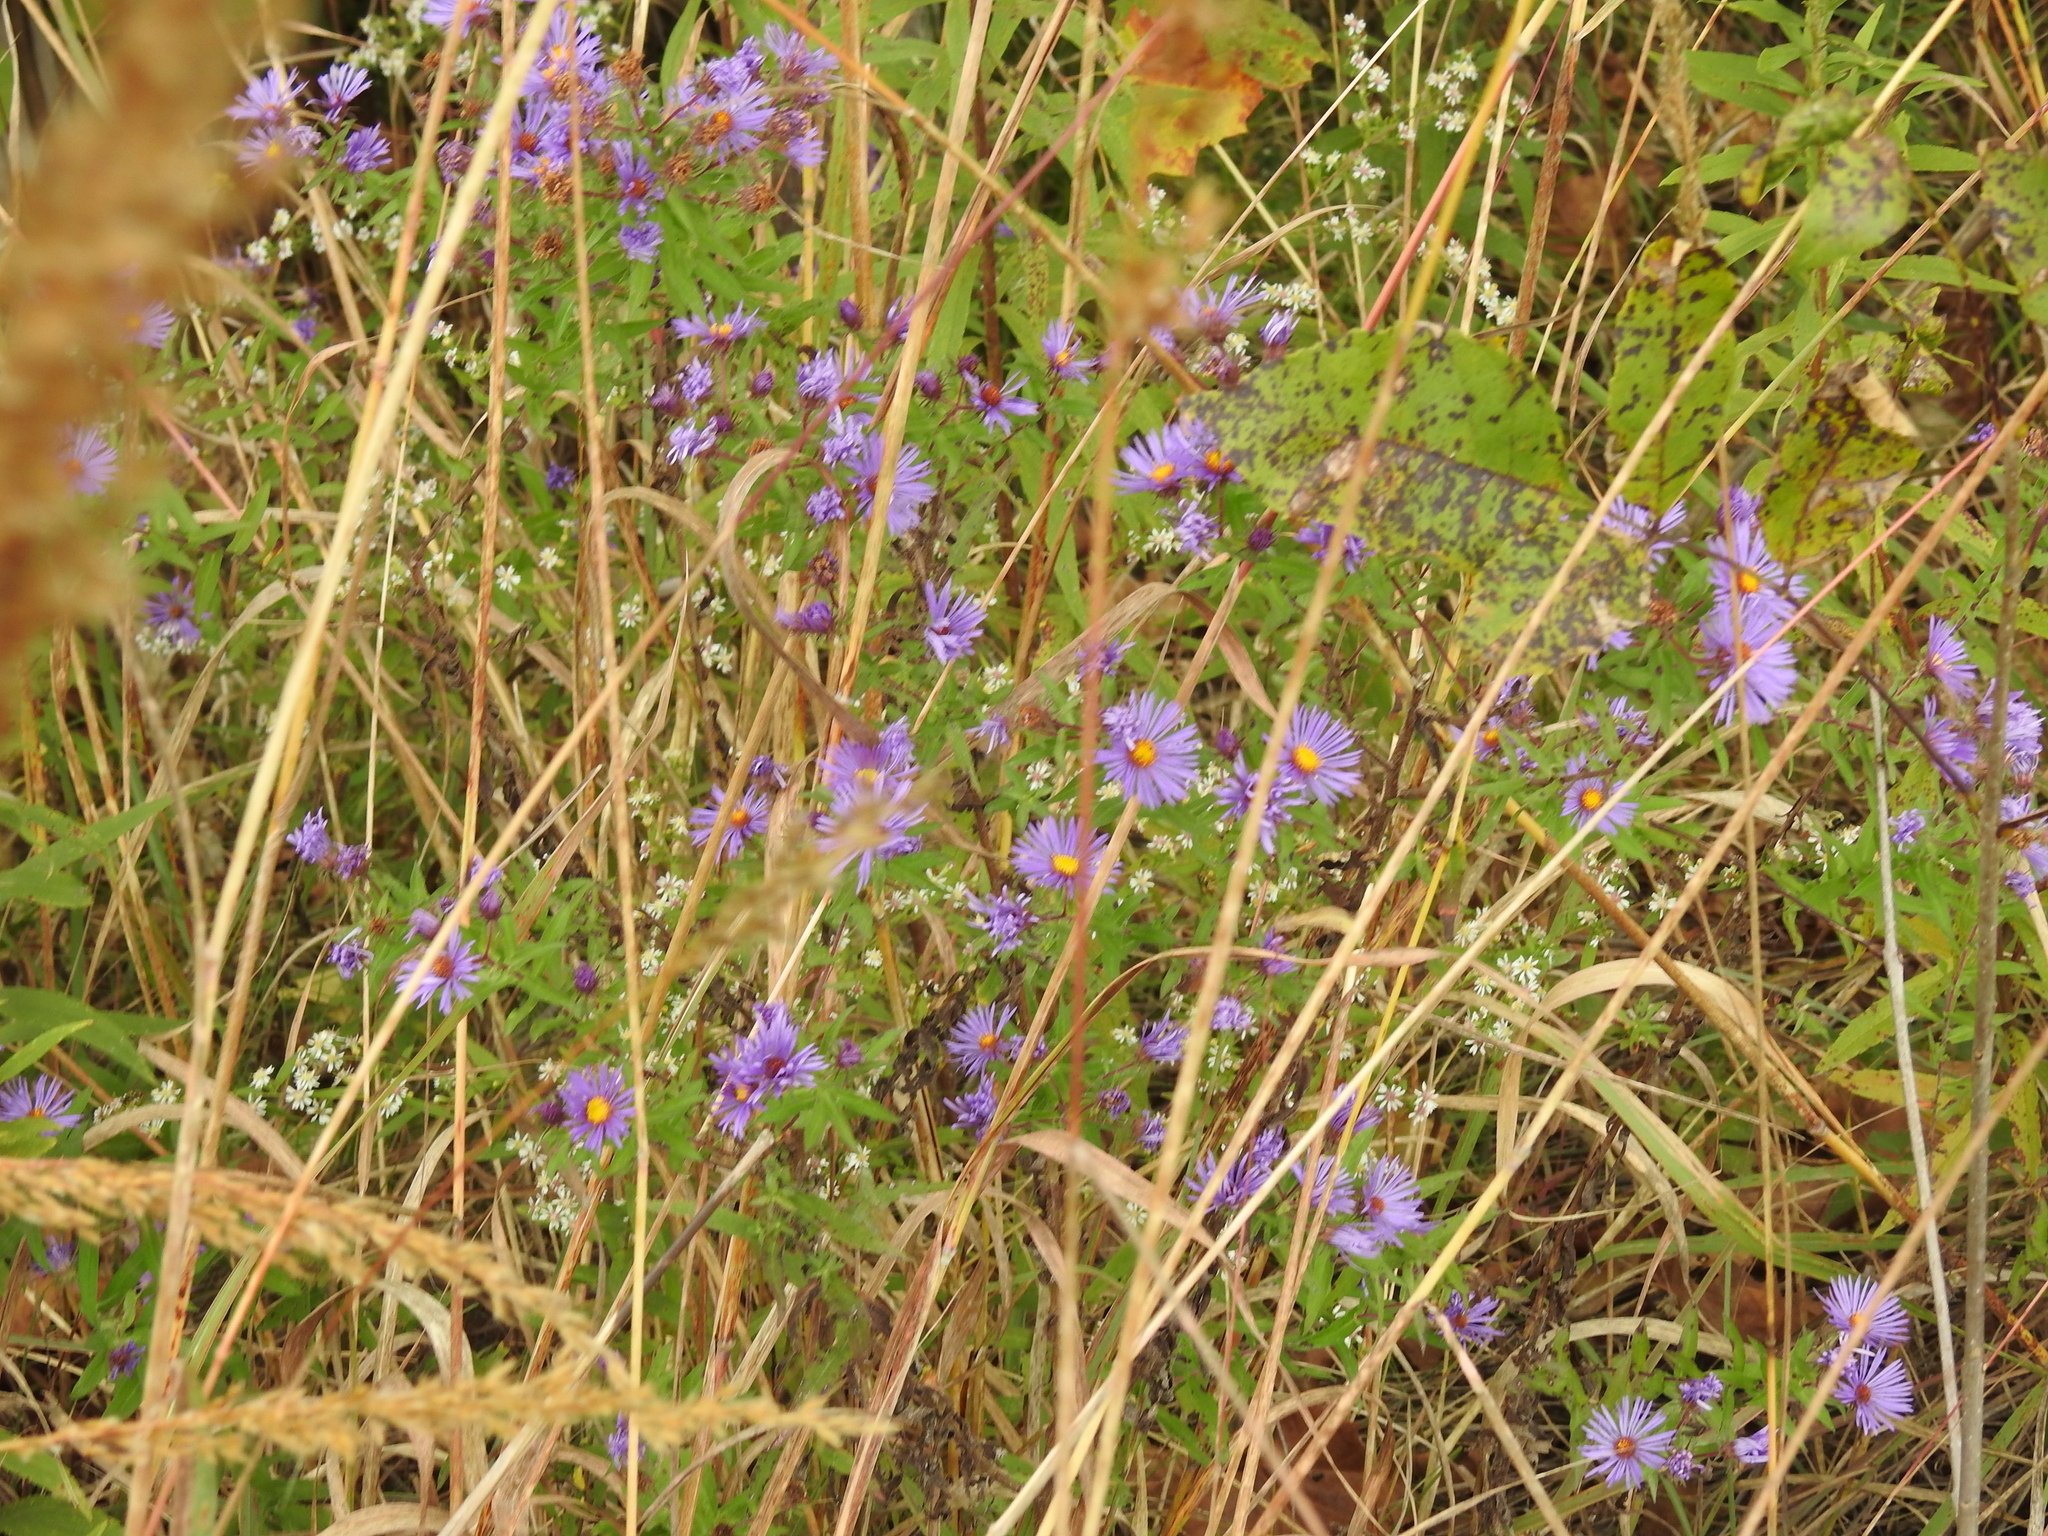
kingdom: Plantae
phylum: Tracheophyta
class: Magnoliopsida
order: Asterales
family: Asteraceae
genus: Symphyotrichum
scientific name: Symphyotrichum novae-angliae
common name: Michaelmas daisy
